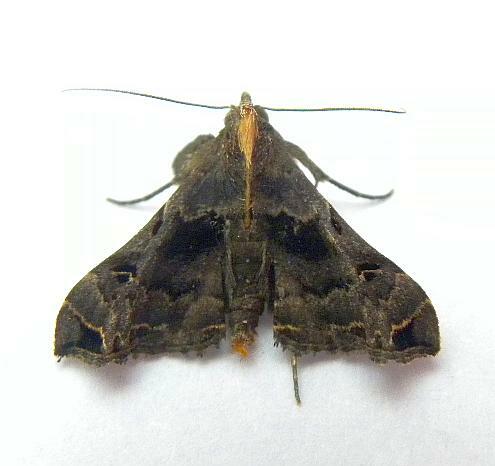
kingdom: Animalia
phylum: Arthropoda
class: Insecta
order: Lepidoptera
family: Erebidae
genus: Palthis
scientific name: Palthis asopialis
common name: Faint-spotted palthis moth
